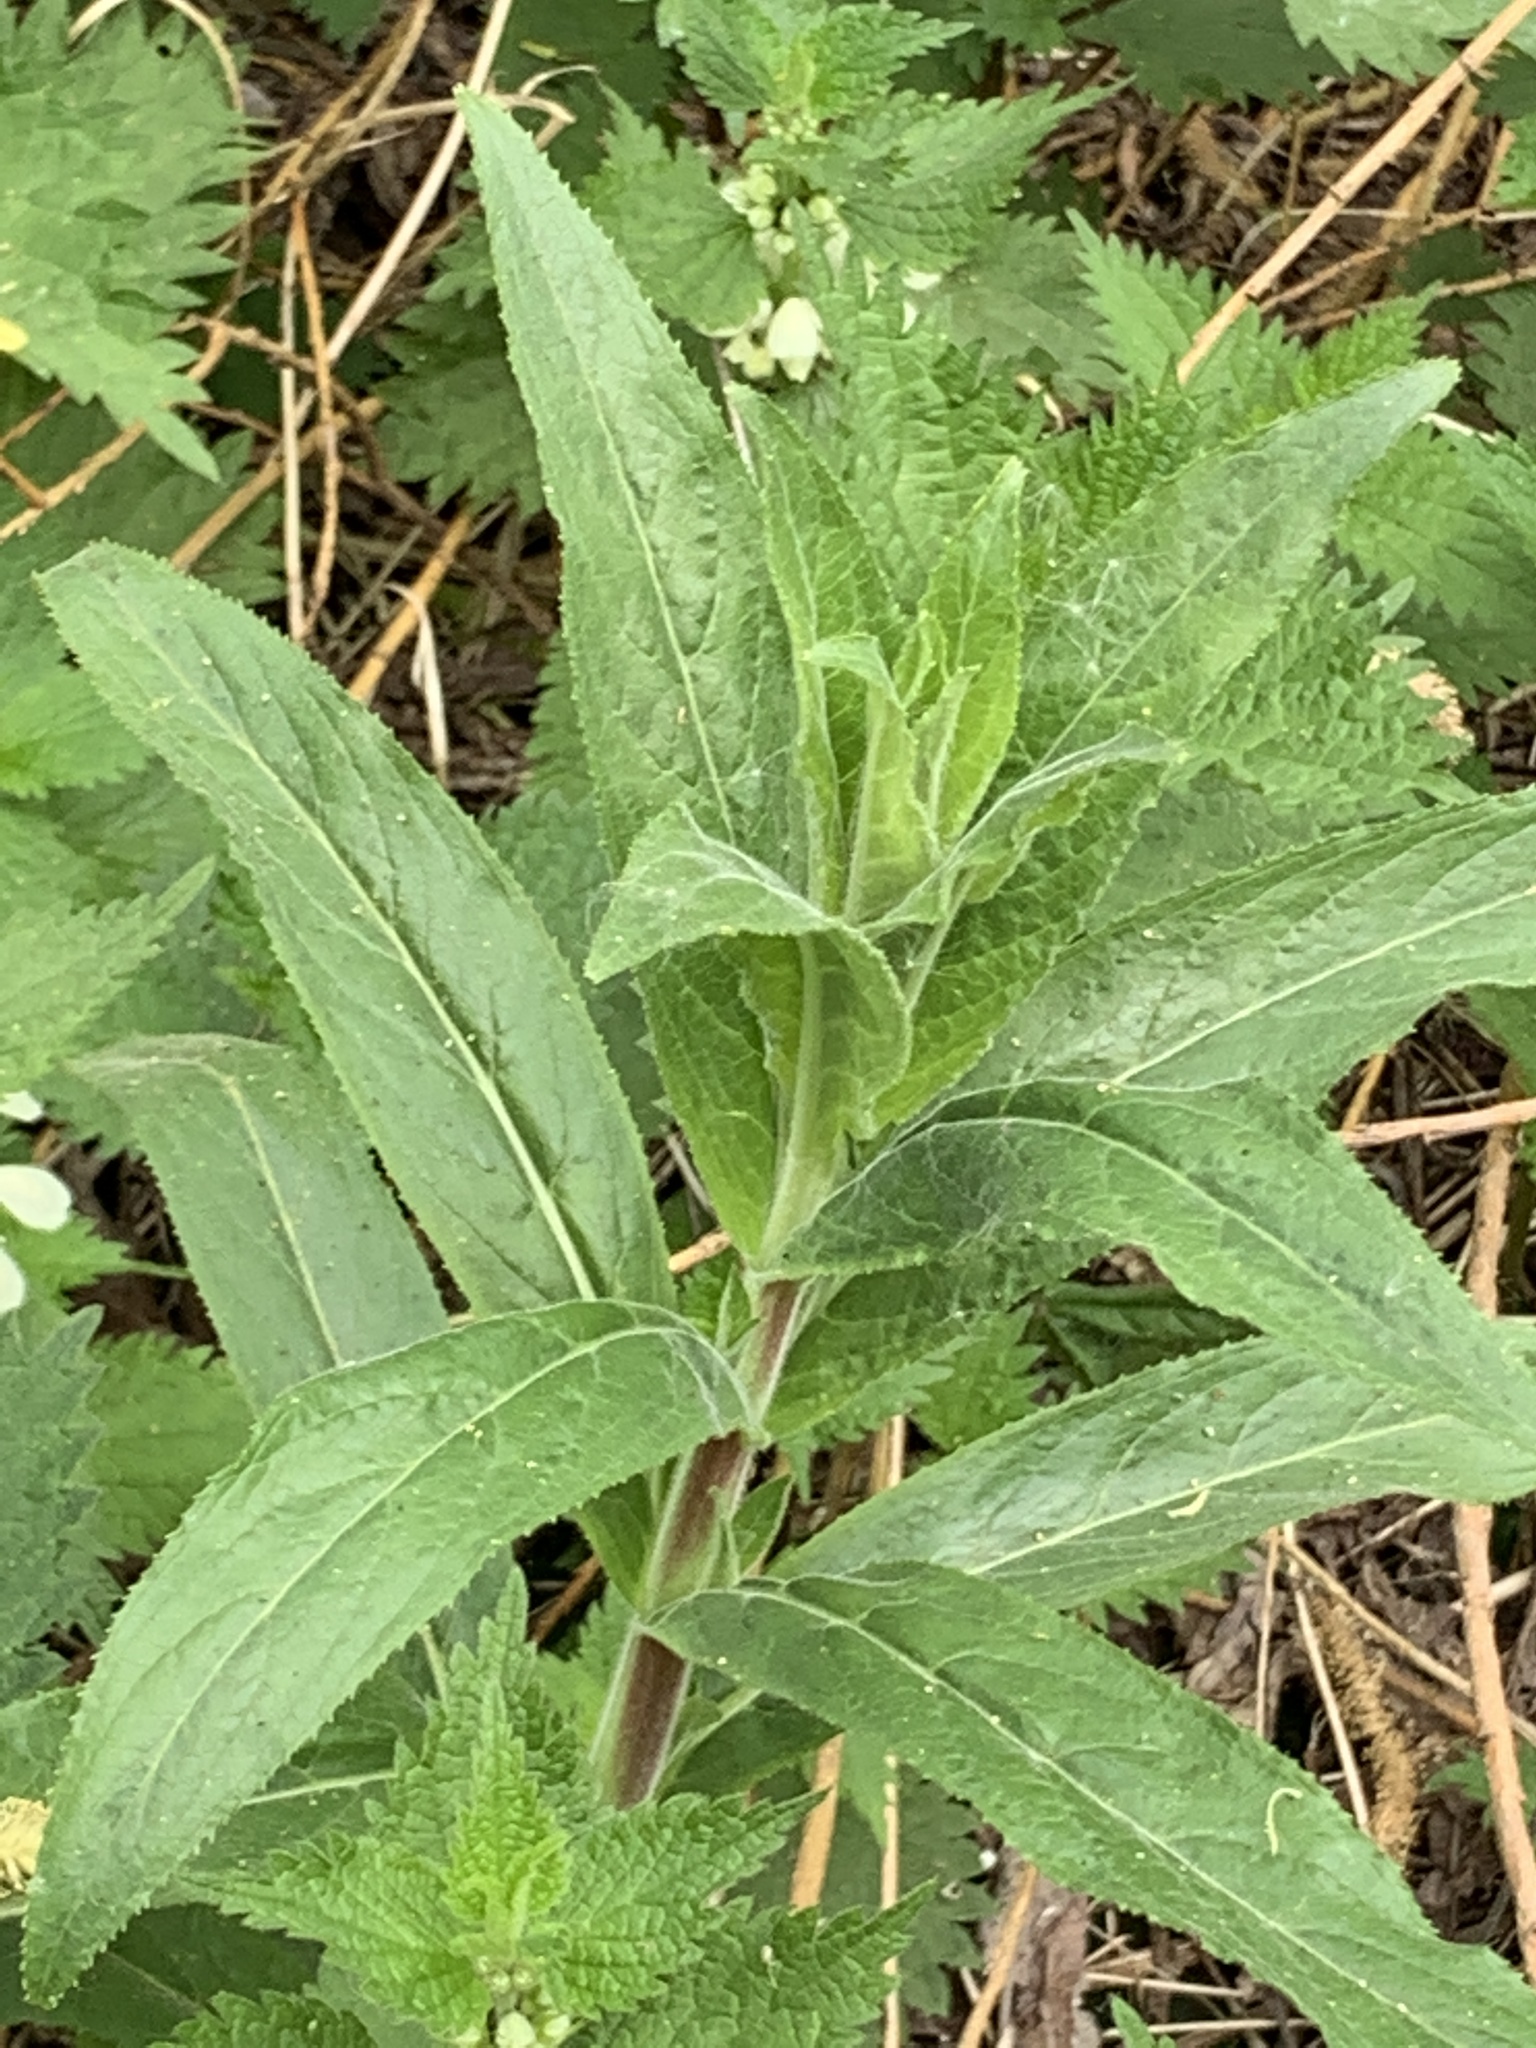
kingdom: Plantae
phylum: Tracheophyta
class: Magnoliopsida
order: Myrtales
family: Onagraceae
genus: Epilobium
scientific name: Epilobium hirsutum
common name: Great willowherb
